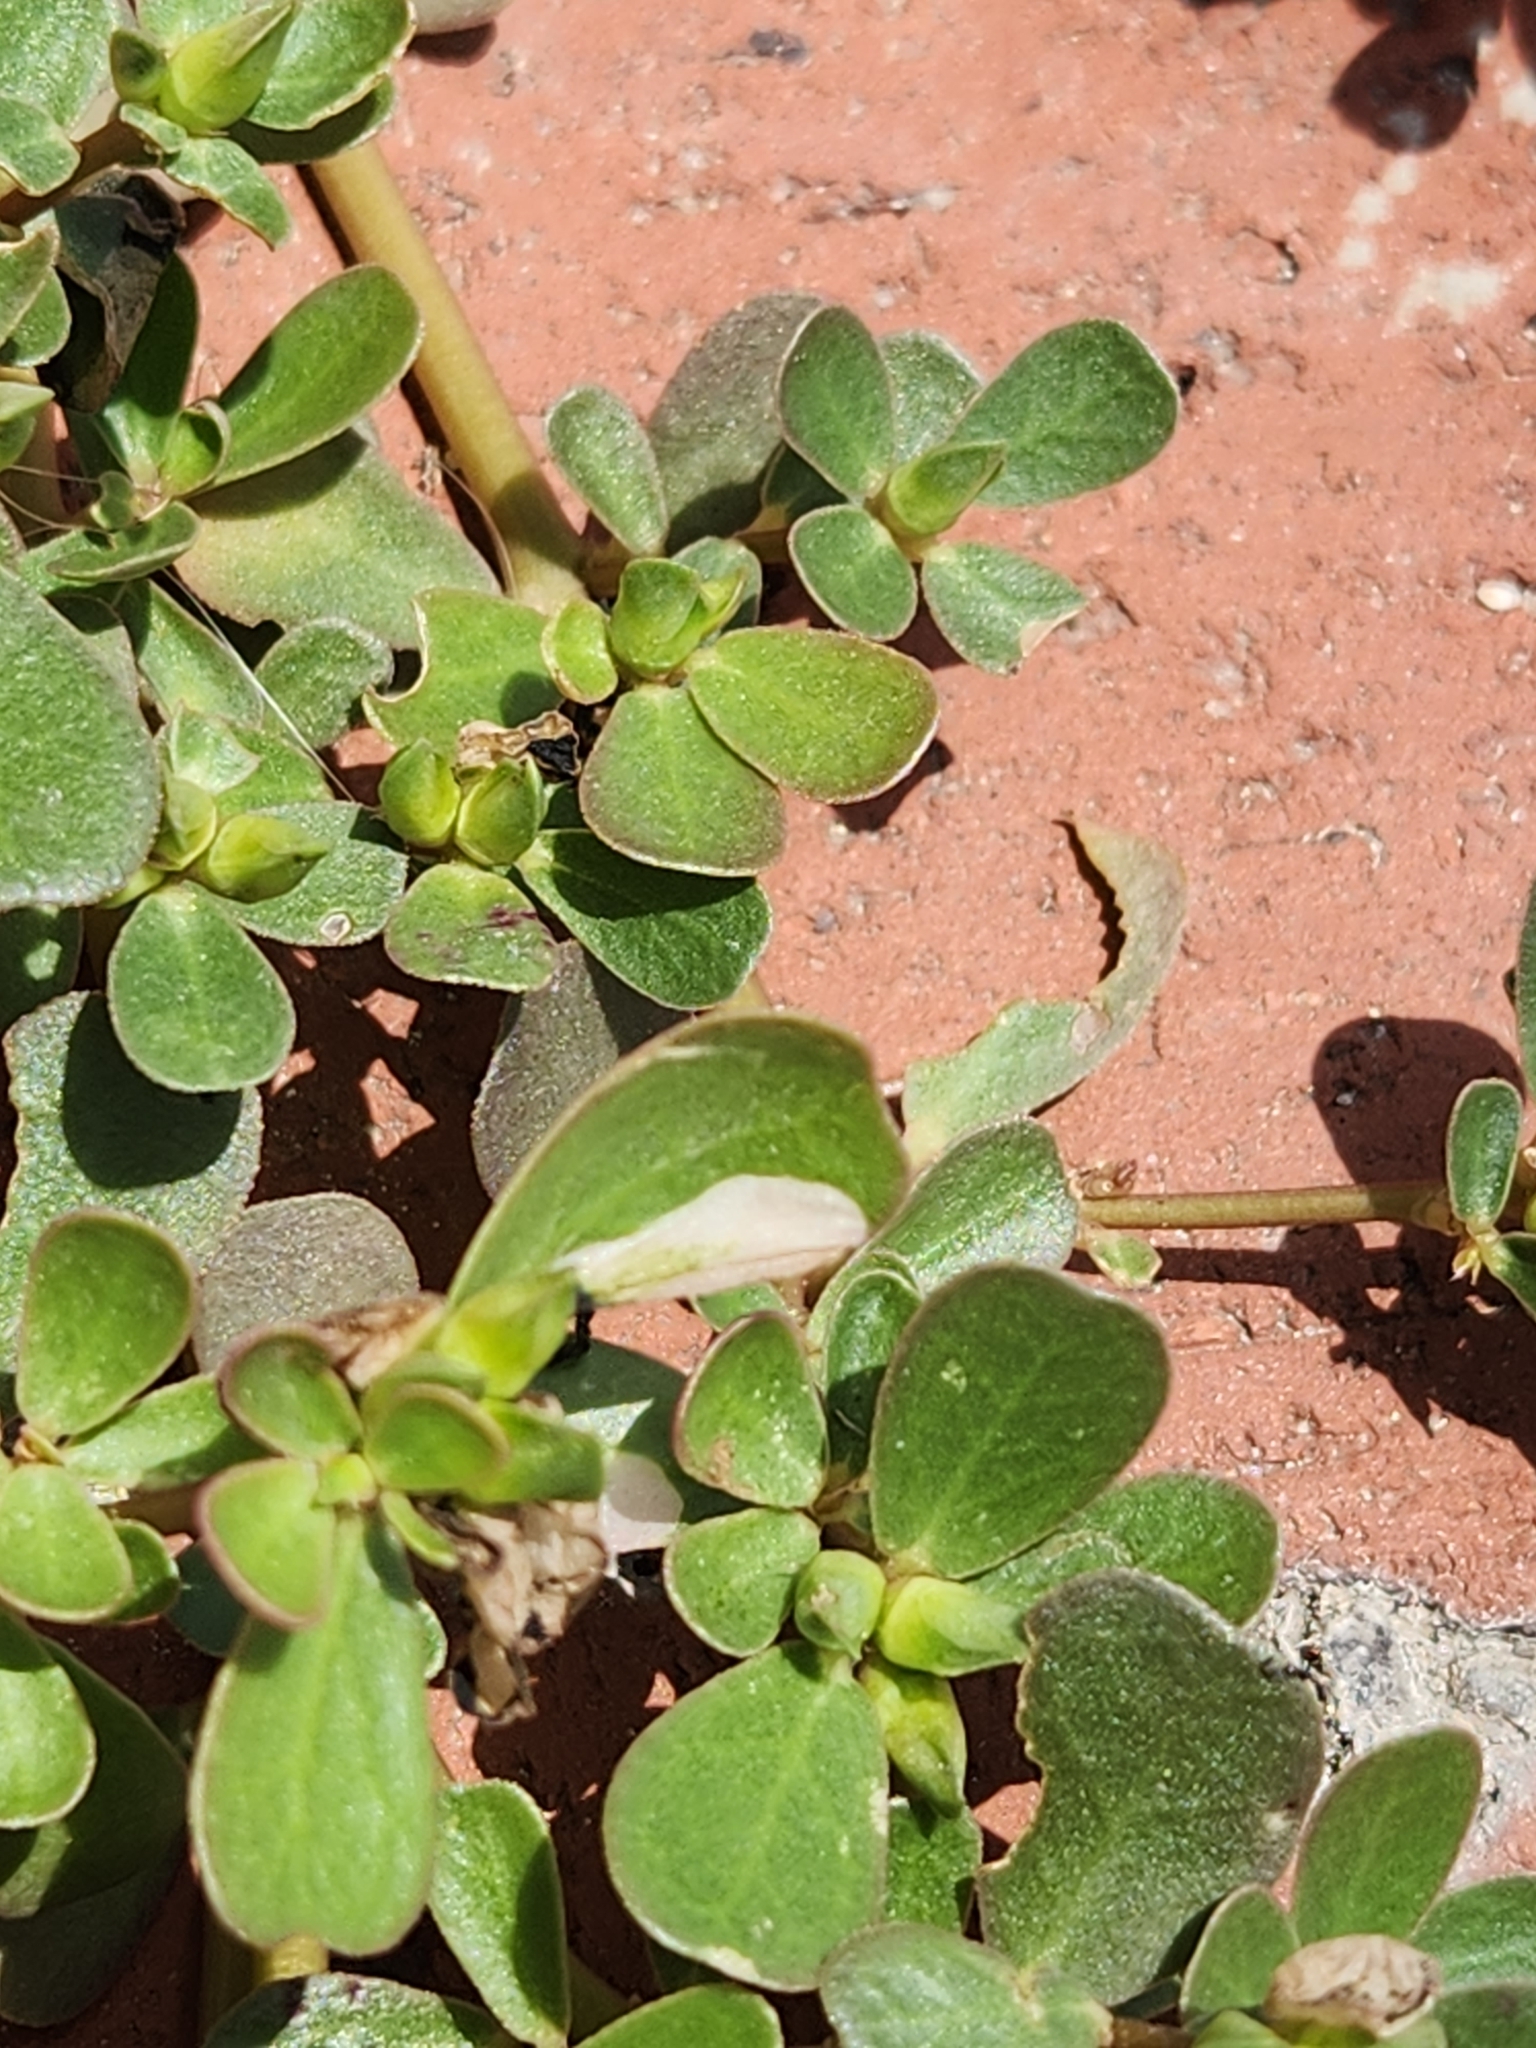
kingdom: Plantae
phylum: Tracheophyta
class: Magnoliopsida
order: Caryophyllales
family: Portulacaceae
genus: Portulaca
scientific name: Portulaca oleracea
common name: Common purslane
